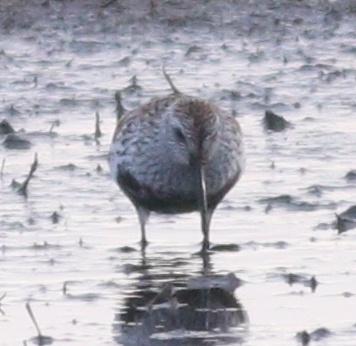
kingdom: Animalia
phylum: Chordata
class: Aves
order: Charadriiformes
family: Scolopacidae
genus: Calidris
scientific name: Calidris alpina
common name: Dunlin
